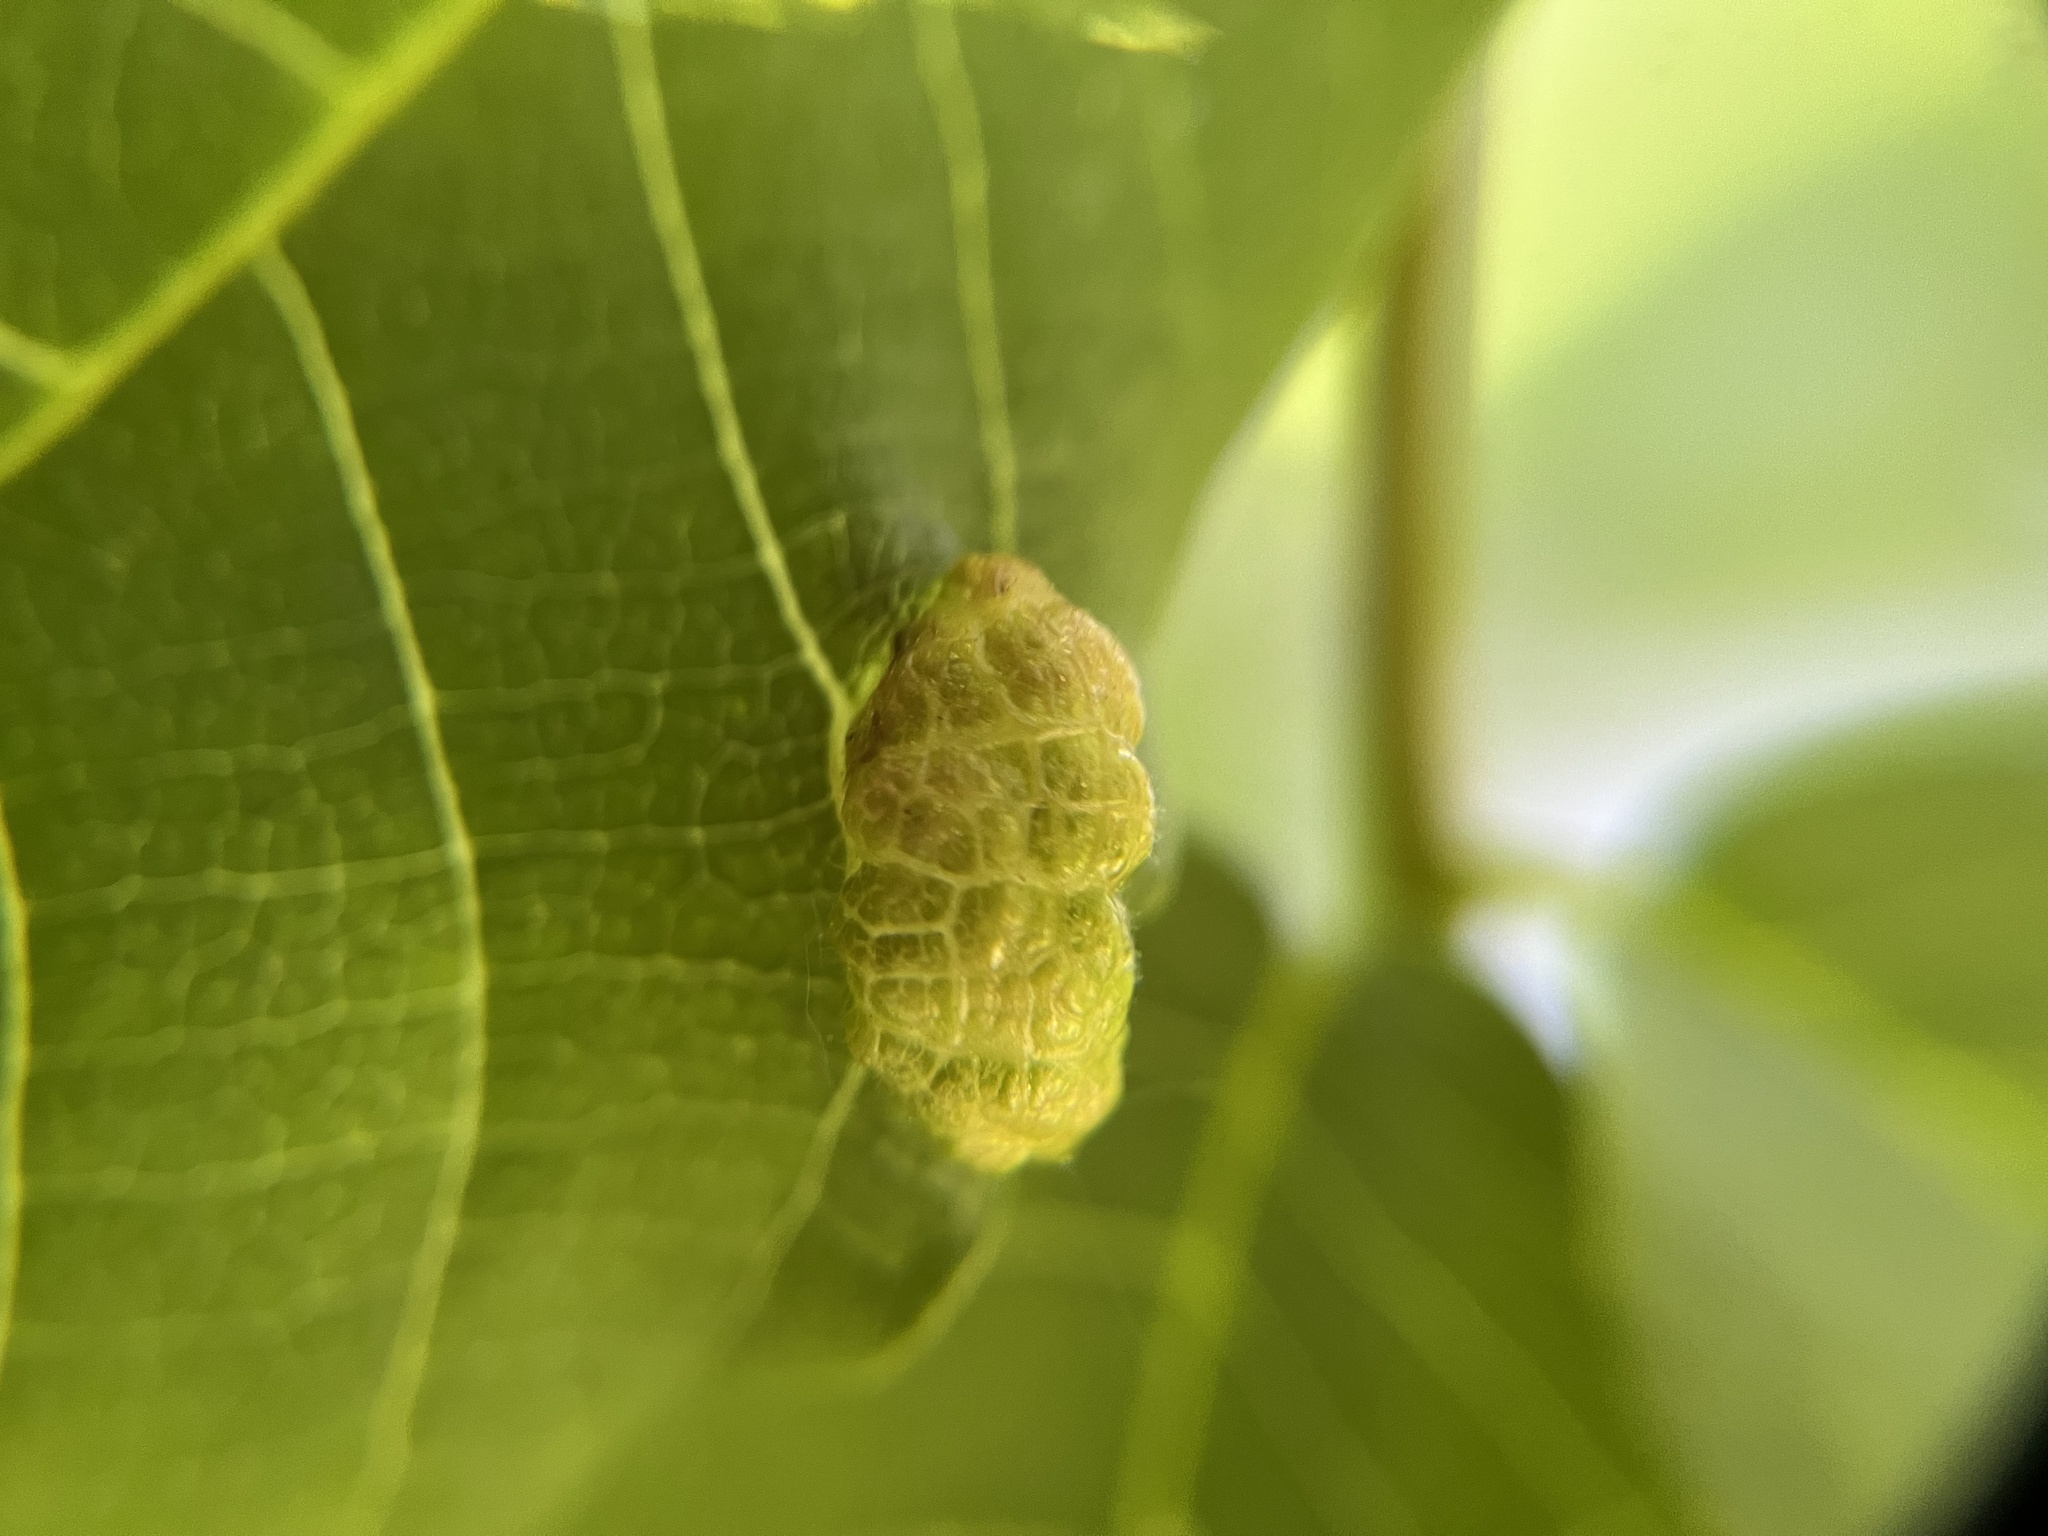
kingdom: Animalia
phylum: Arthropoda
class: Arachnida
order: Trombidiformes
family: Eriophyidae
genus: Aceria
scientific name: Aceria erinea
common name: Persian walnut erineum mite
